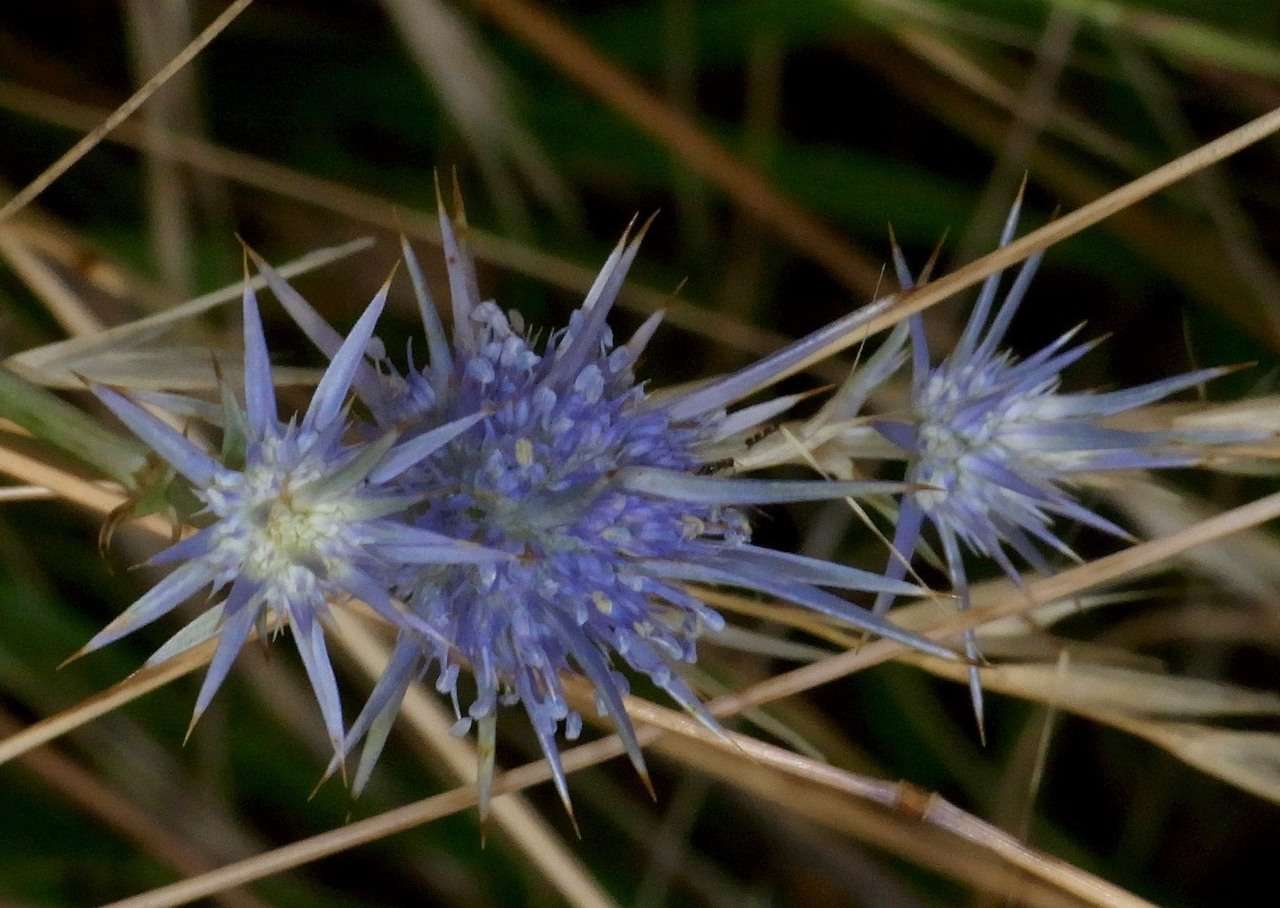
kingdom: Plantae
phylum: Tracheophyta
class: Magnoliopsida
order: Apiales
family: Apiaceae
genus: Eryngium
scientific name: Eryngium ovinum
